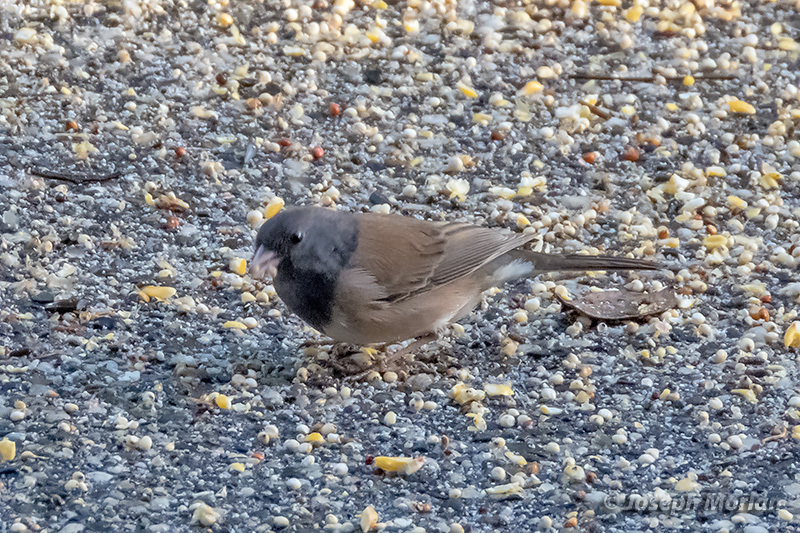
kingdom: Animalia
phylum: Chordata
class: Aves
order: Passeriformes
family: Passerellidae
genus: Junco
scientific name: Junco hyemalis
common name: Dark-eyed junco
